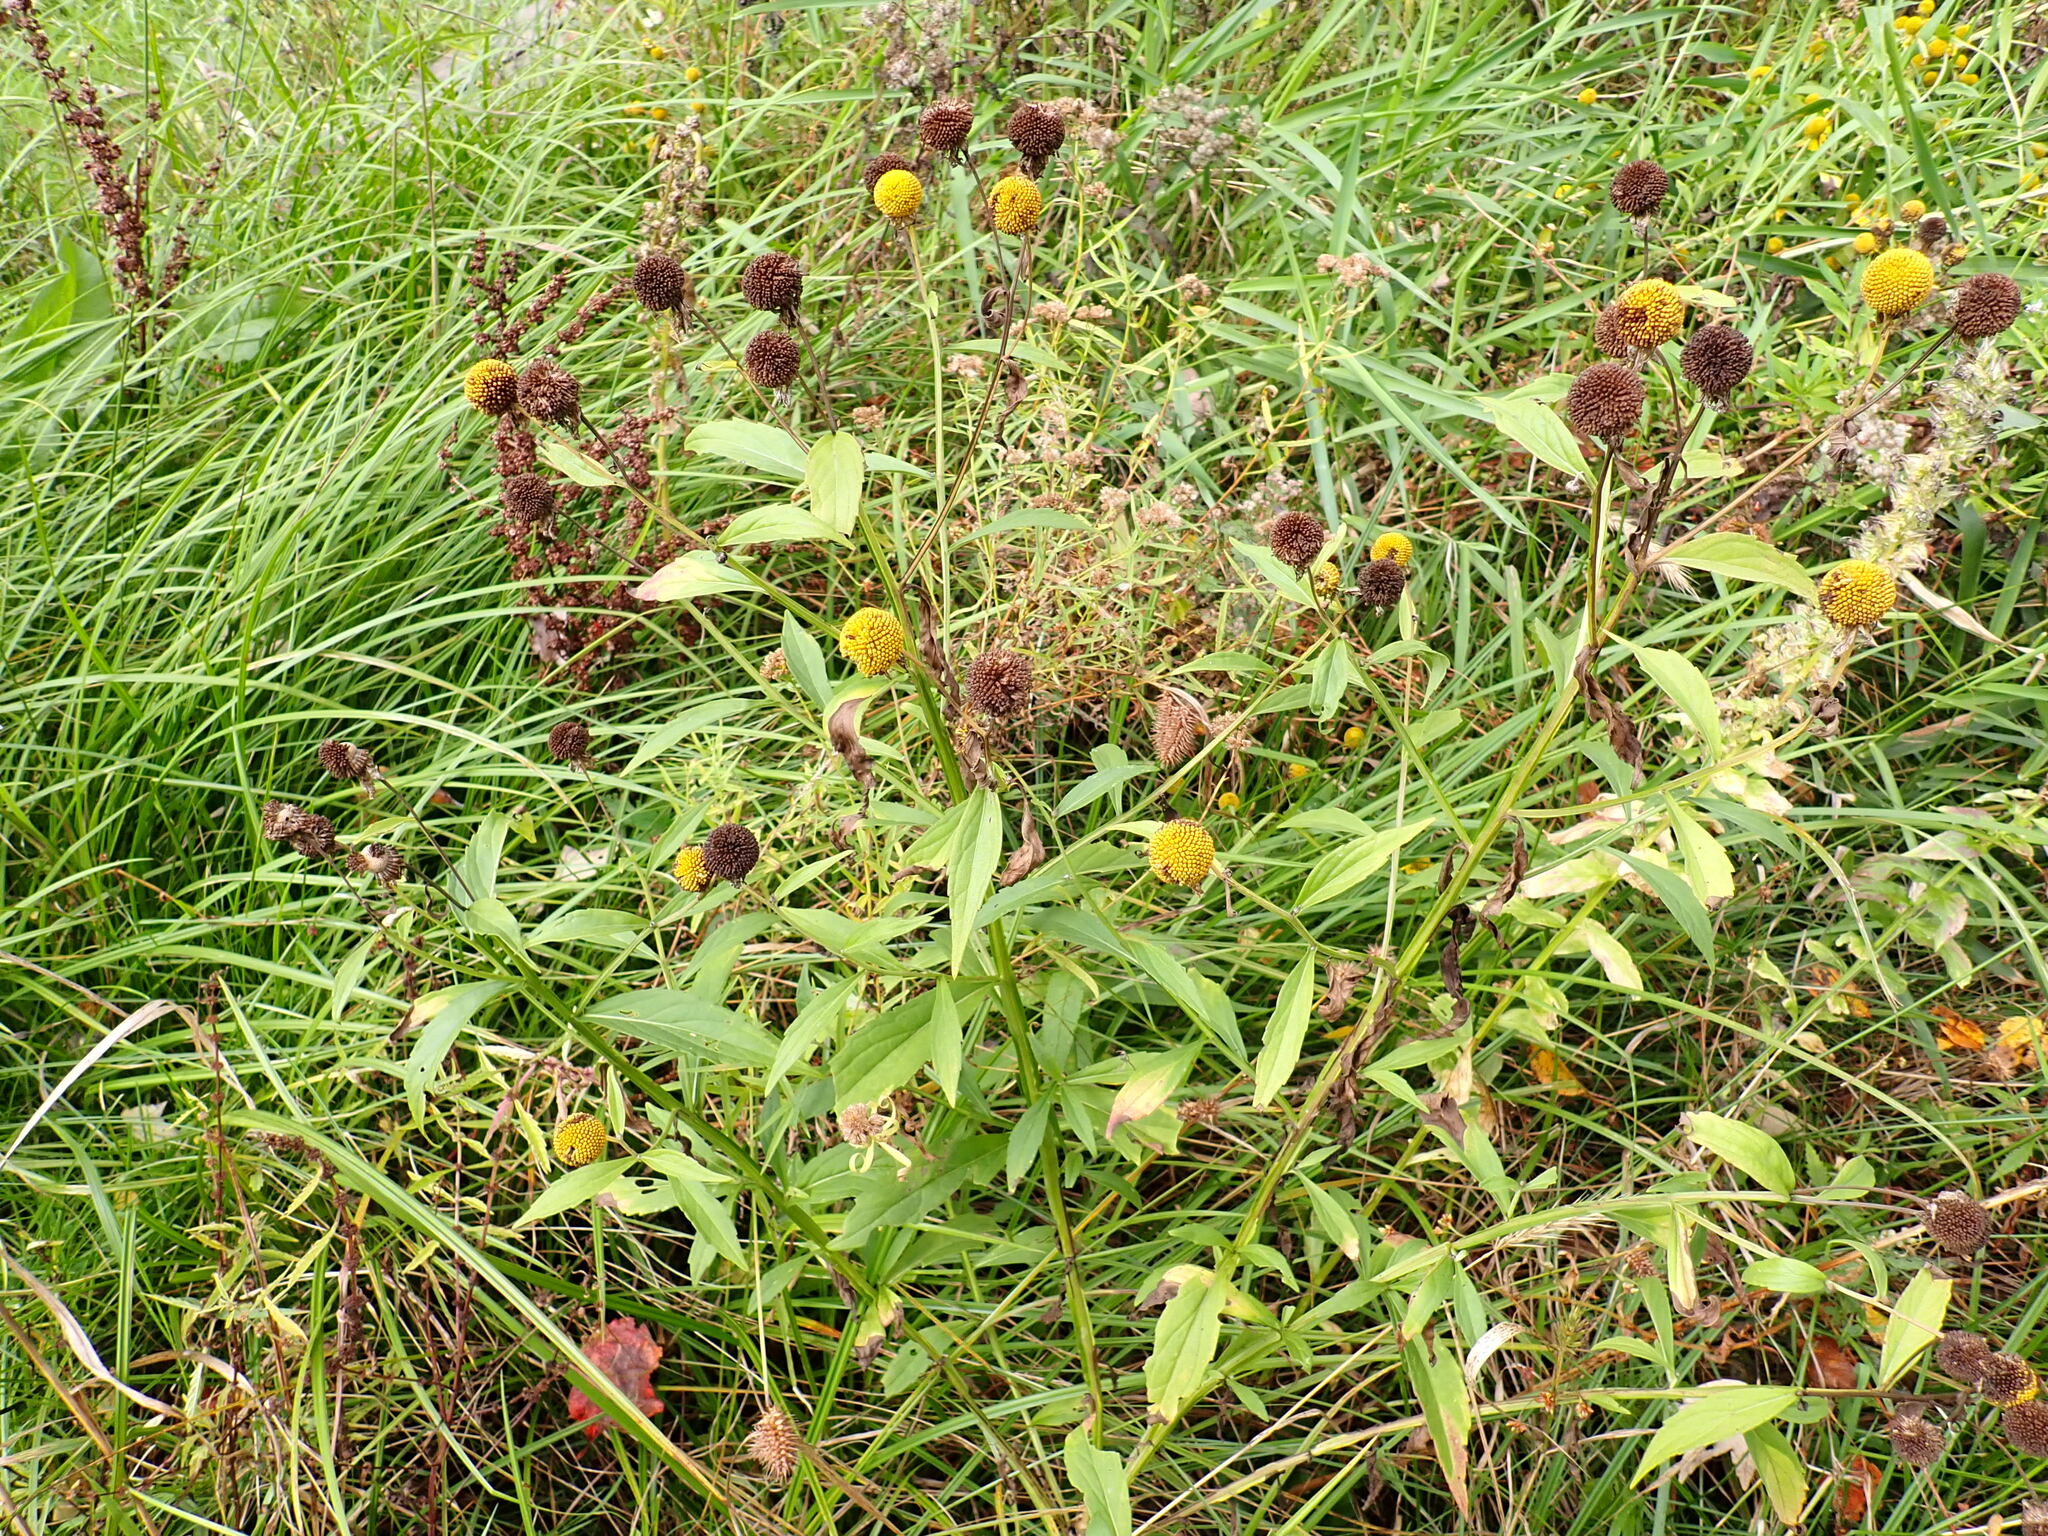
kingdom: Plantae
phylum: Tracheophyta
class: Magnoliopsida
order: Asterales
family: Asteraceae
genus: Helenium
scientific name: Helenium autumnale
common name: Sneezeweed
